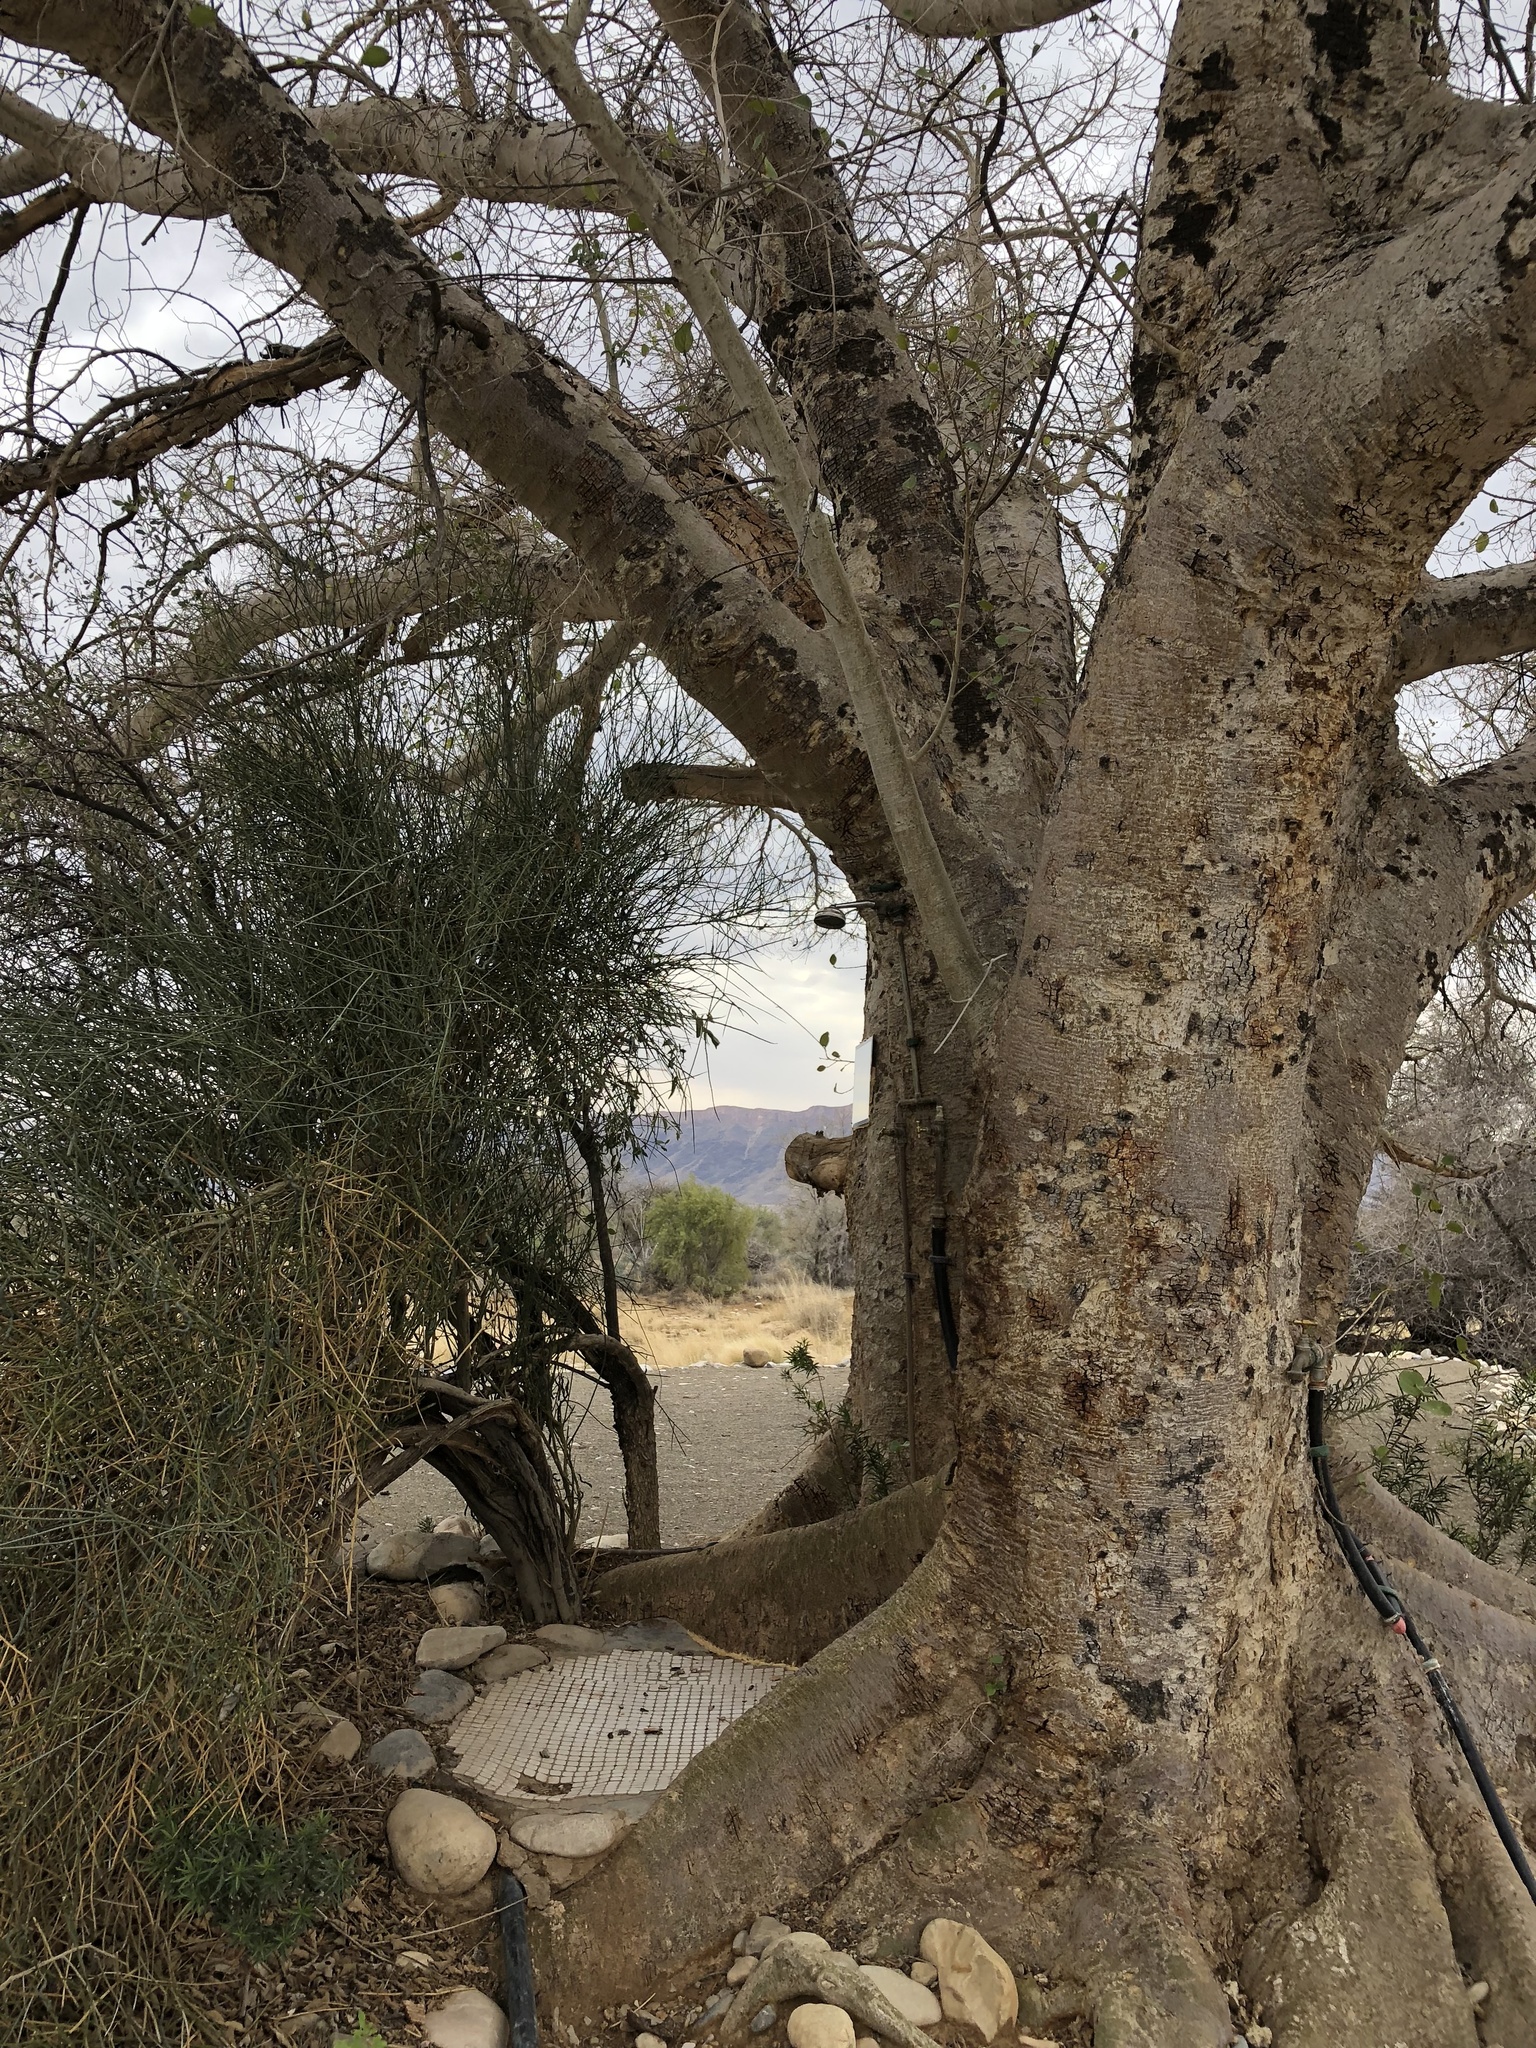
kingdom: Plantae
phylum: Tracheophyta
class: Magnoliopsida
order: Rosales
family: Moraceae
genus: Ficus
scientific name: Ficus sycomorus
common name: Sycomore
